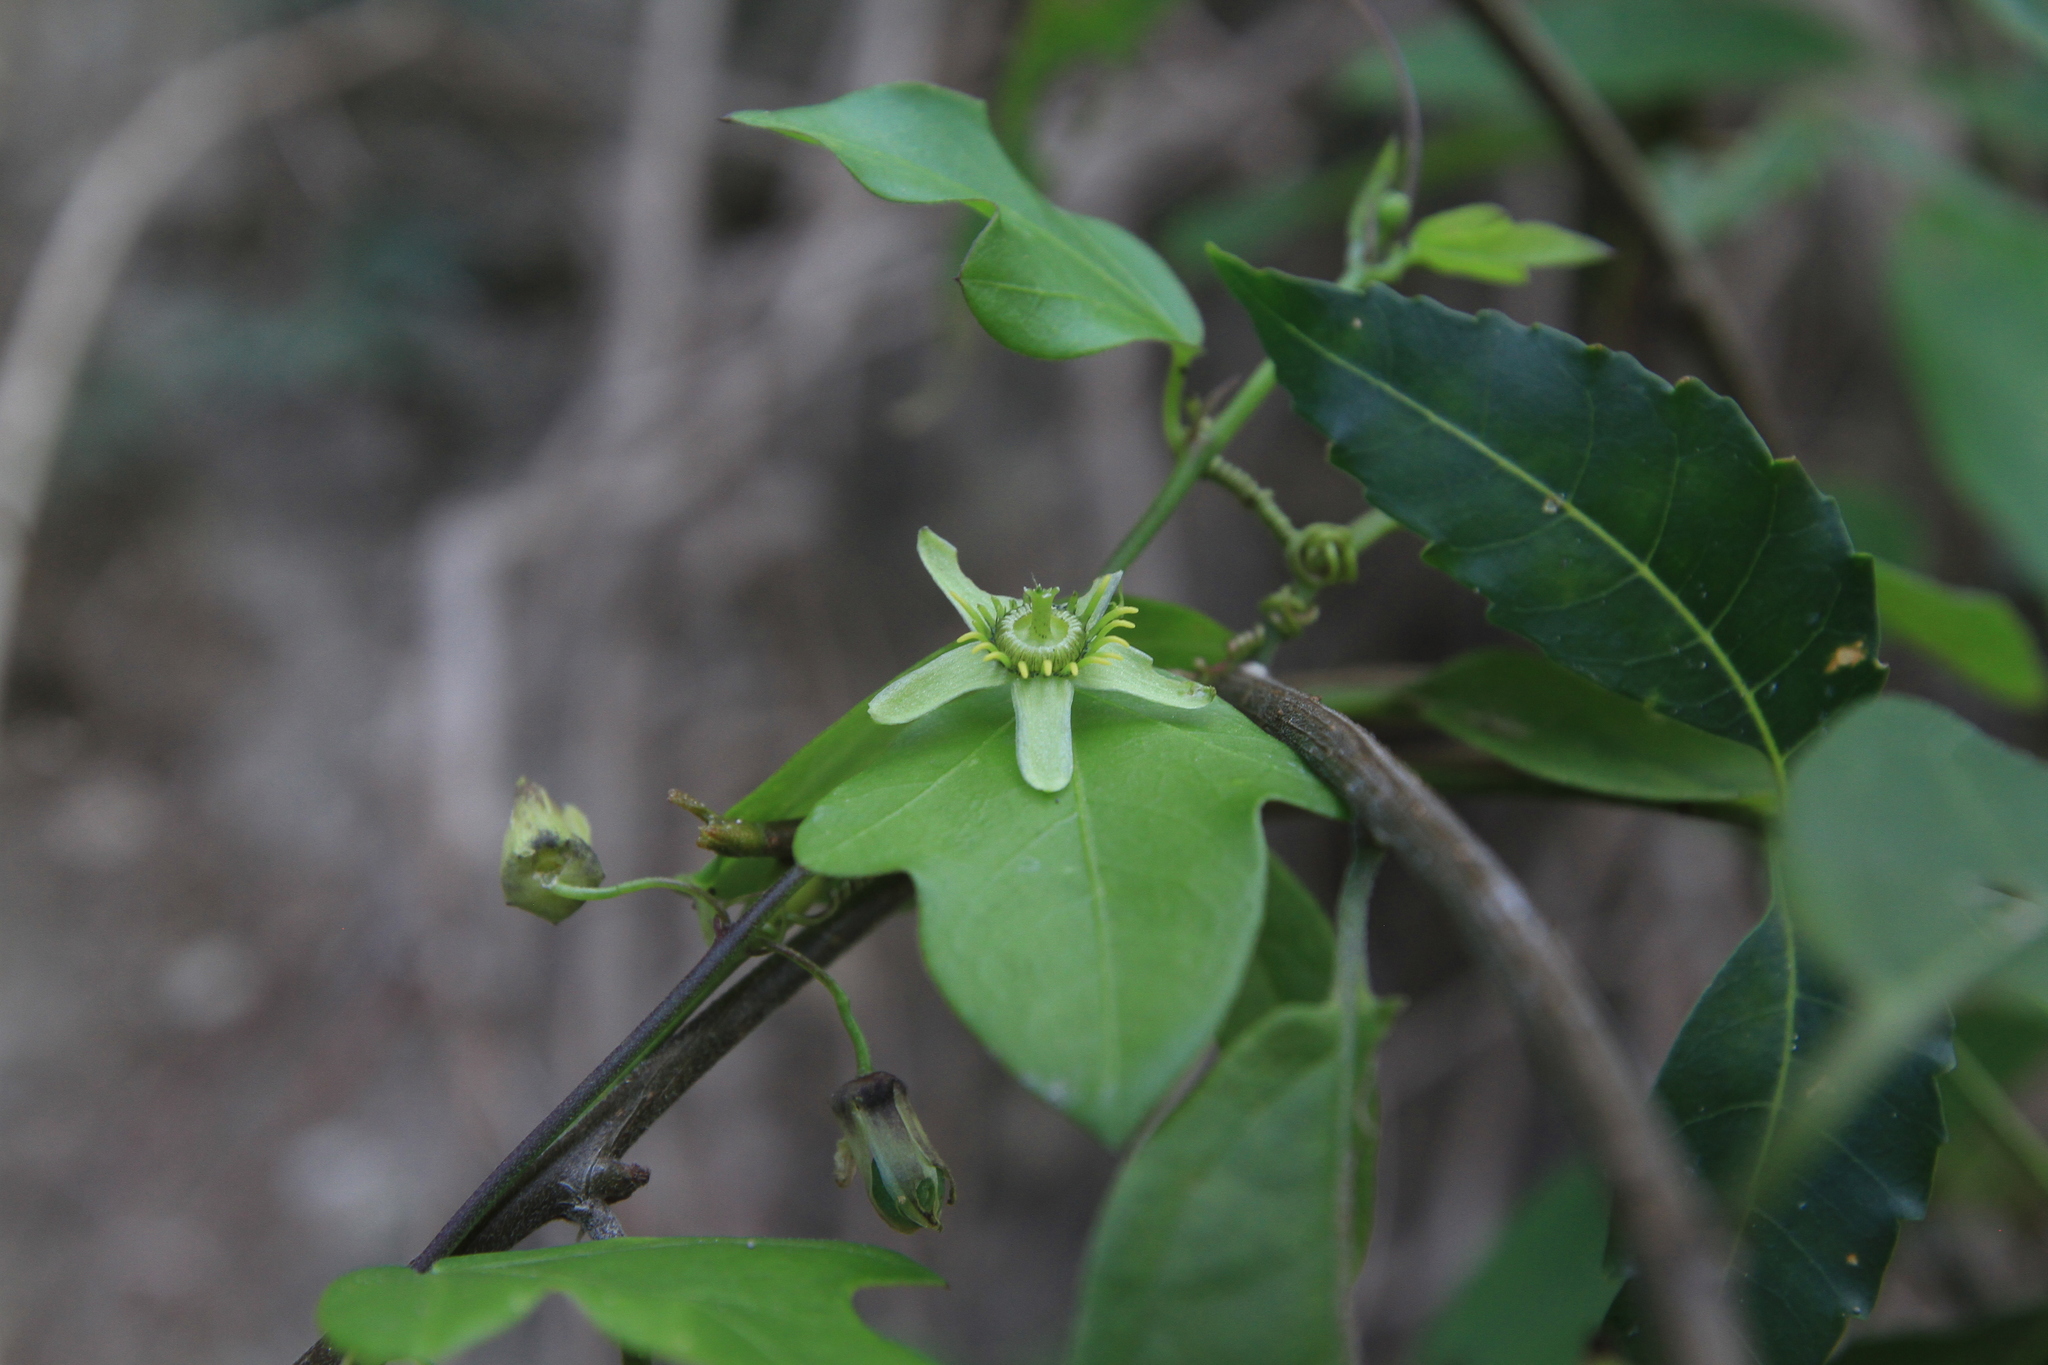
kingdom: Plantae
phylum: Tracheophyta
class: Magnoliopsida
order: Malpighiales
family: Passifloraceae
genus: Passiflora
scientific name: Passiflora pallida
